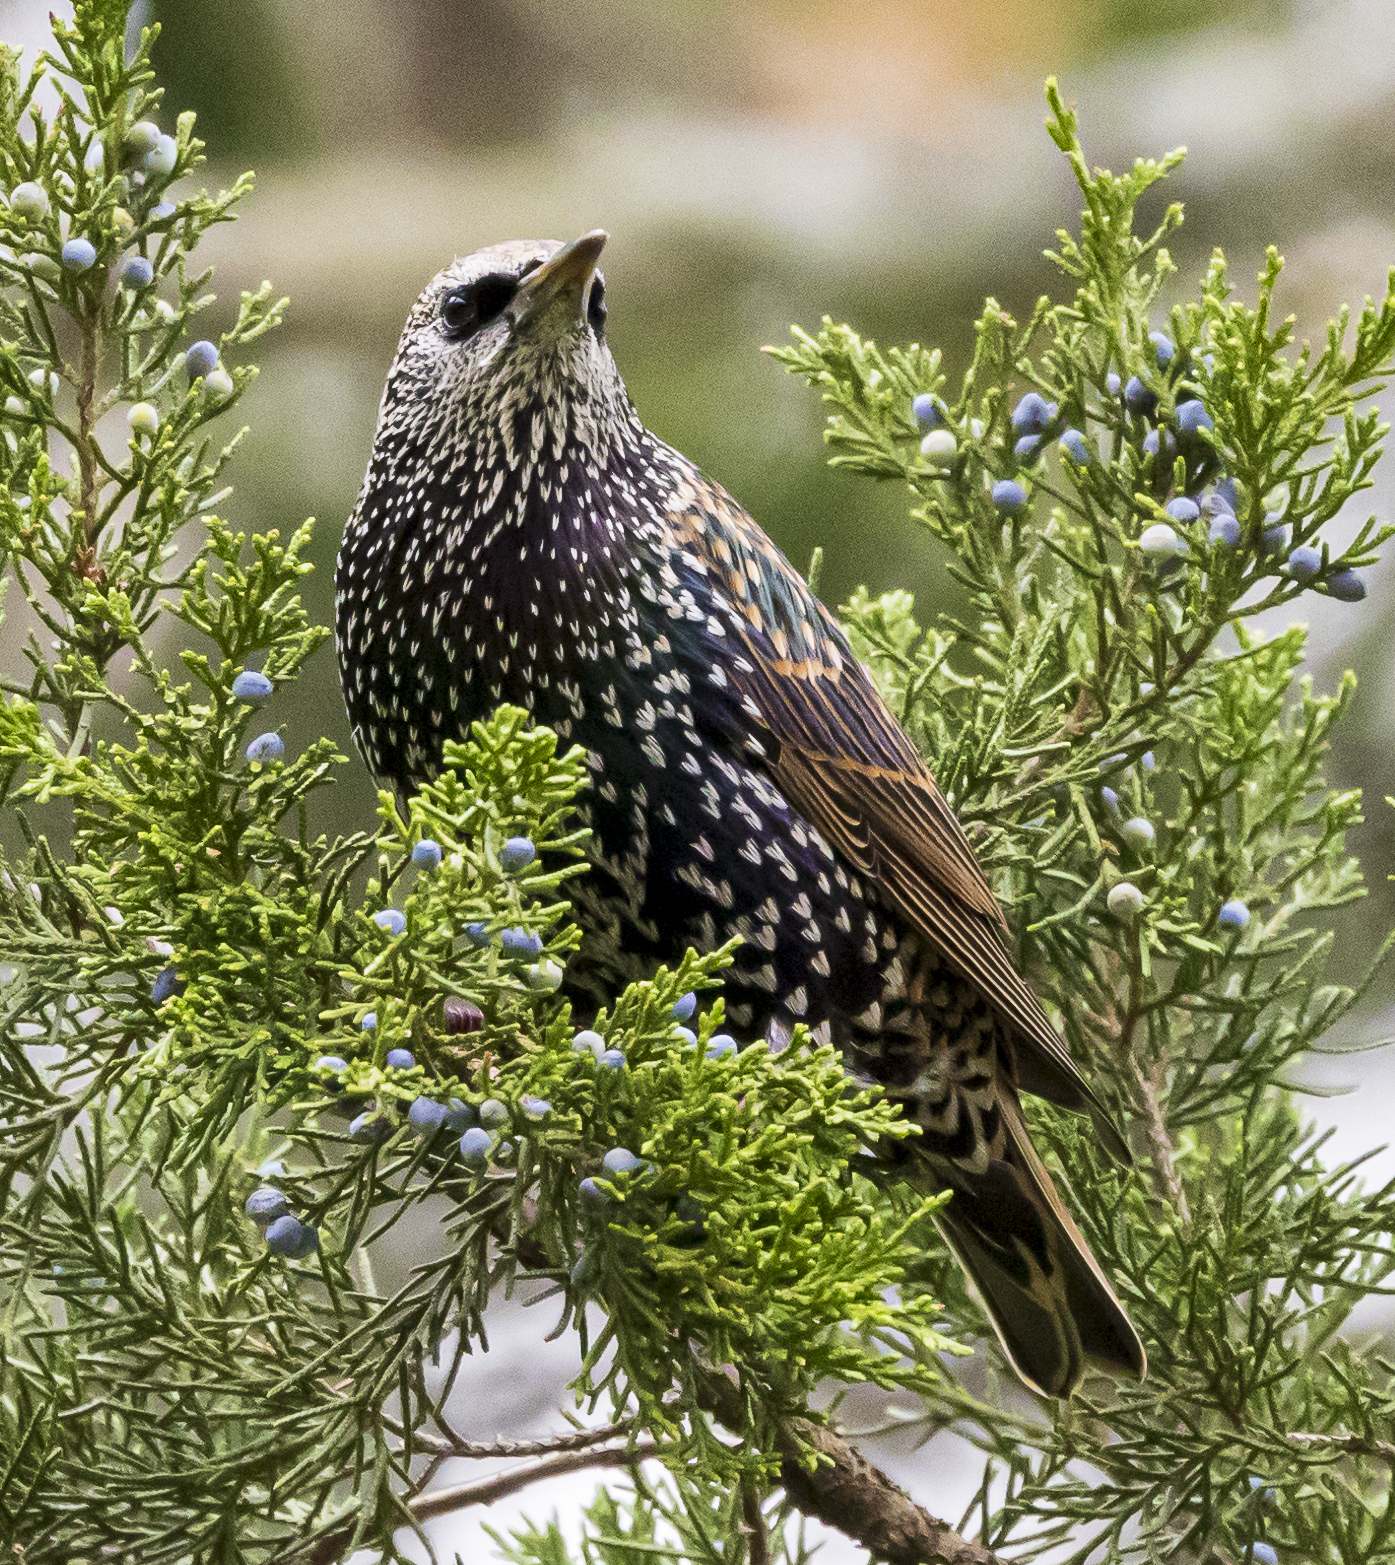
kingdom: Animalia
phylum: Chordata
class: Aves
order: Passeriformes
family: Sturnidae
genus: Sturnus
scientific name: Sturnus vulgaris
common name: Common starling
